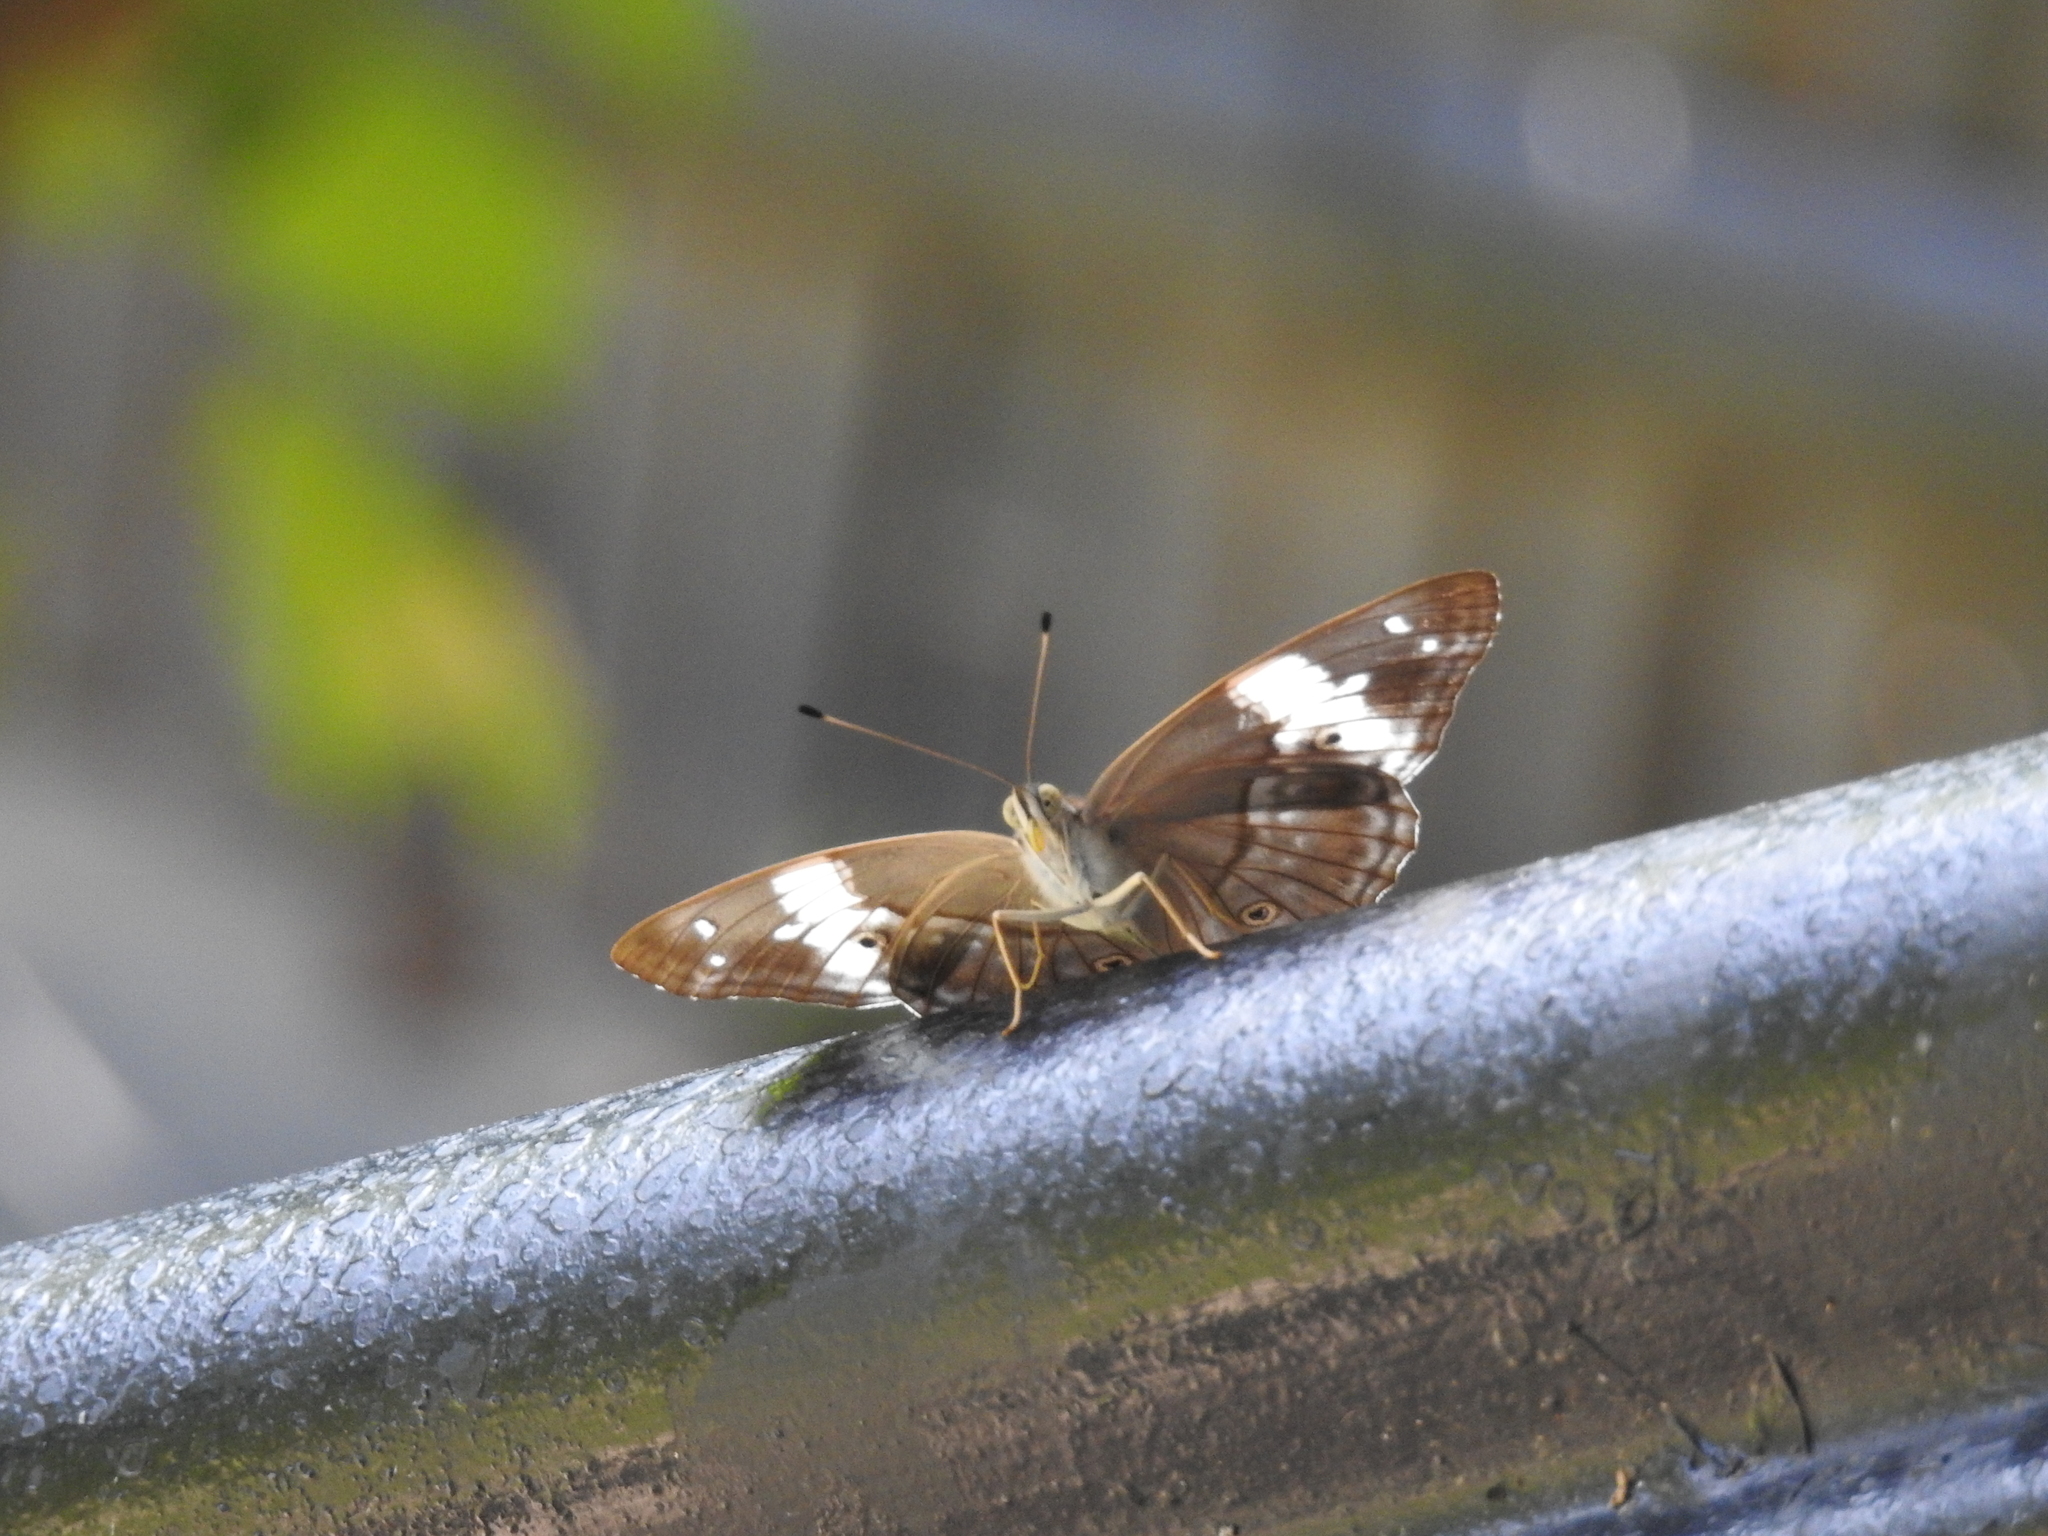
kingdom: Animalia
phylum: Arthropoda
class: Insecta
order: Lepidoptera
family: Nymphalidae
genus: Apatura
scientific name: Apatura
